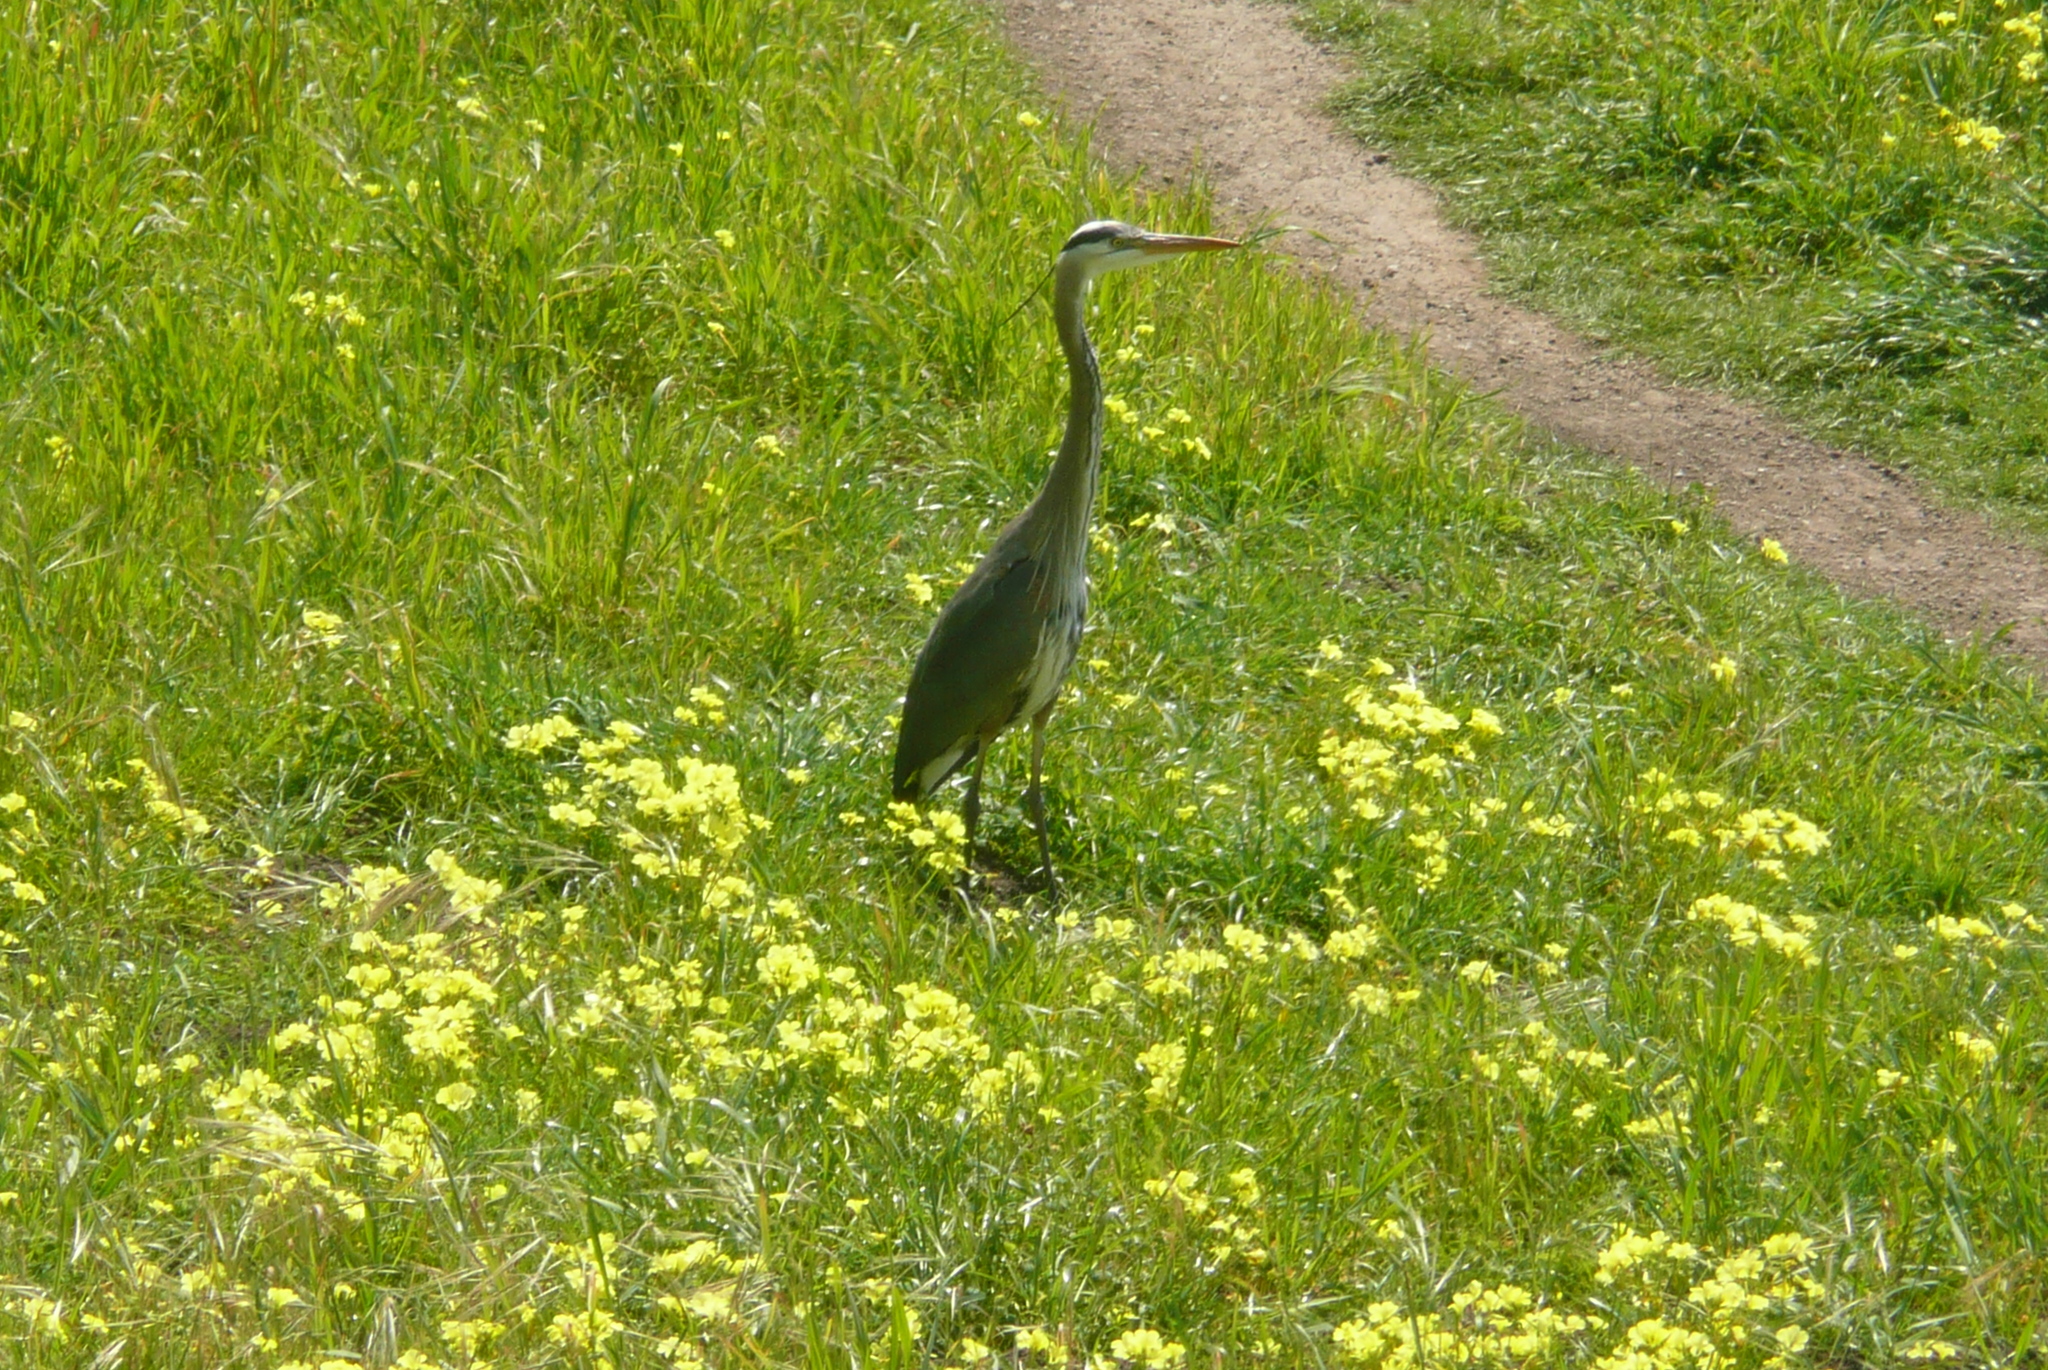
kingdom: Animalia
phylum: Chordata
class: Aves
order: Pelecaniformes
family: Ardeidae
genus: Ardea
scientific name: Ardea herodias
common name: Great blue heron
